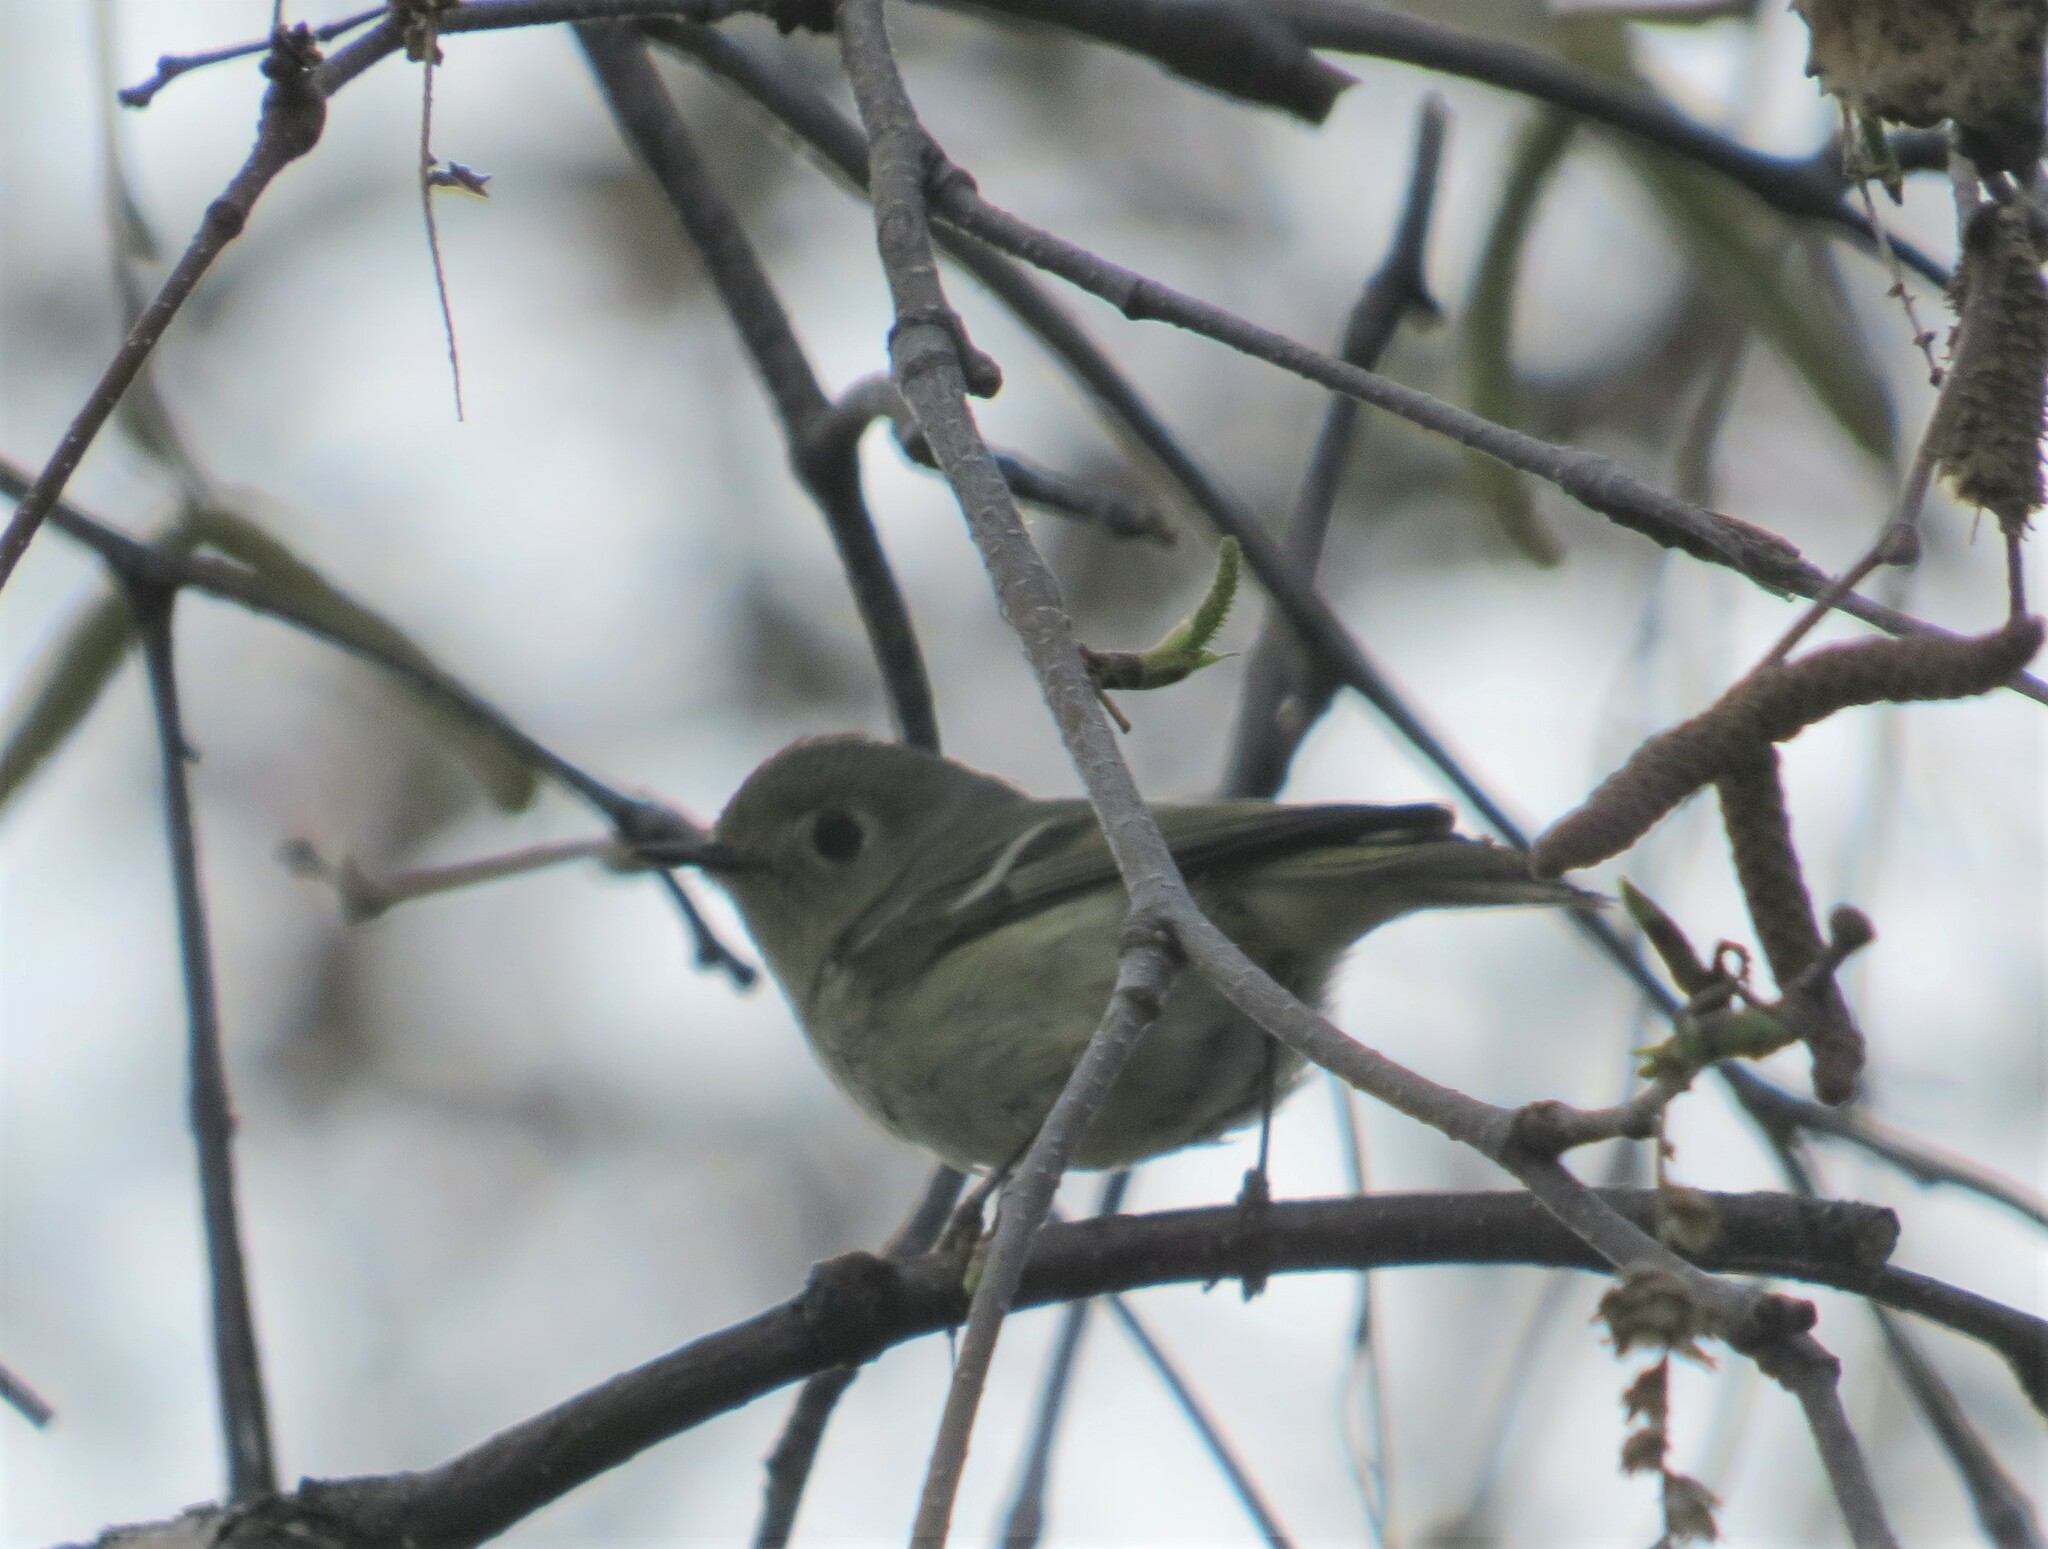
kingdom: Animalia
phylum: Chordata
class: Aves
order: Passeriformes
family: Regulidae
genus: Regulus
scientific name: Regulus calendula
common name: Ruby-crowned kinglet
